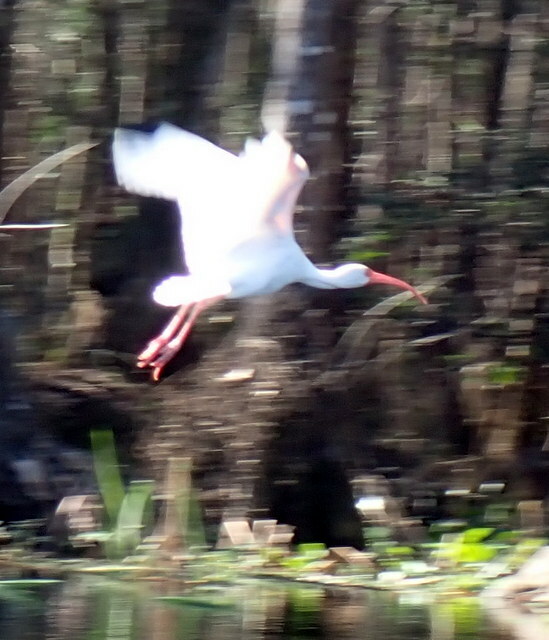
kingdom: Animalia
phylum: Chordata
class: Aves
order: Pelecaniformes
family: Threskiornithidae
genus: Eudocimus
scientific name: Eudocimus albus
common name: White ibis
